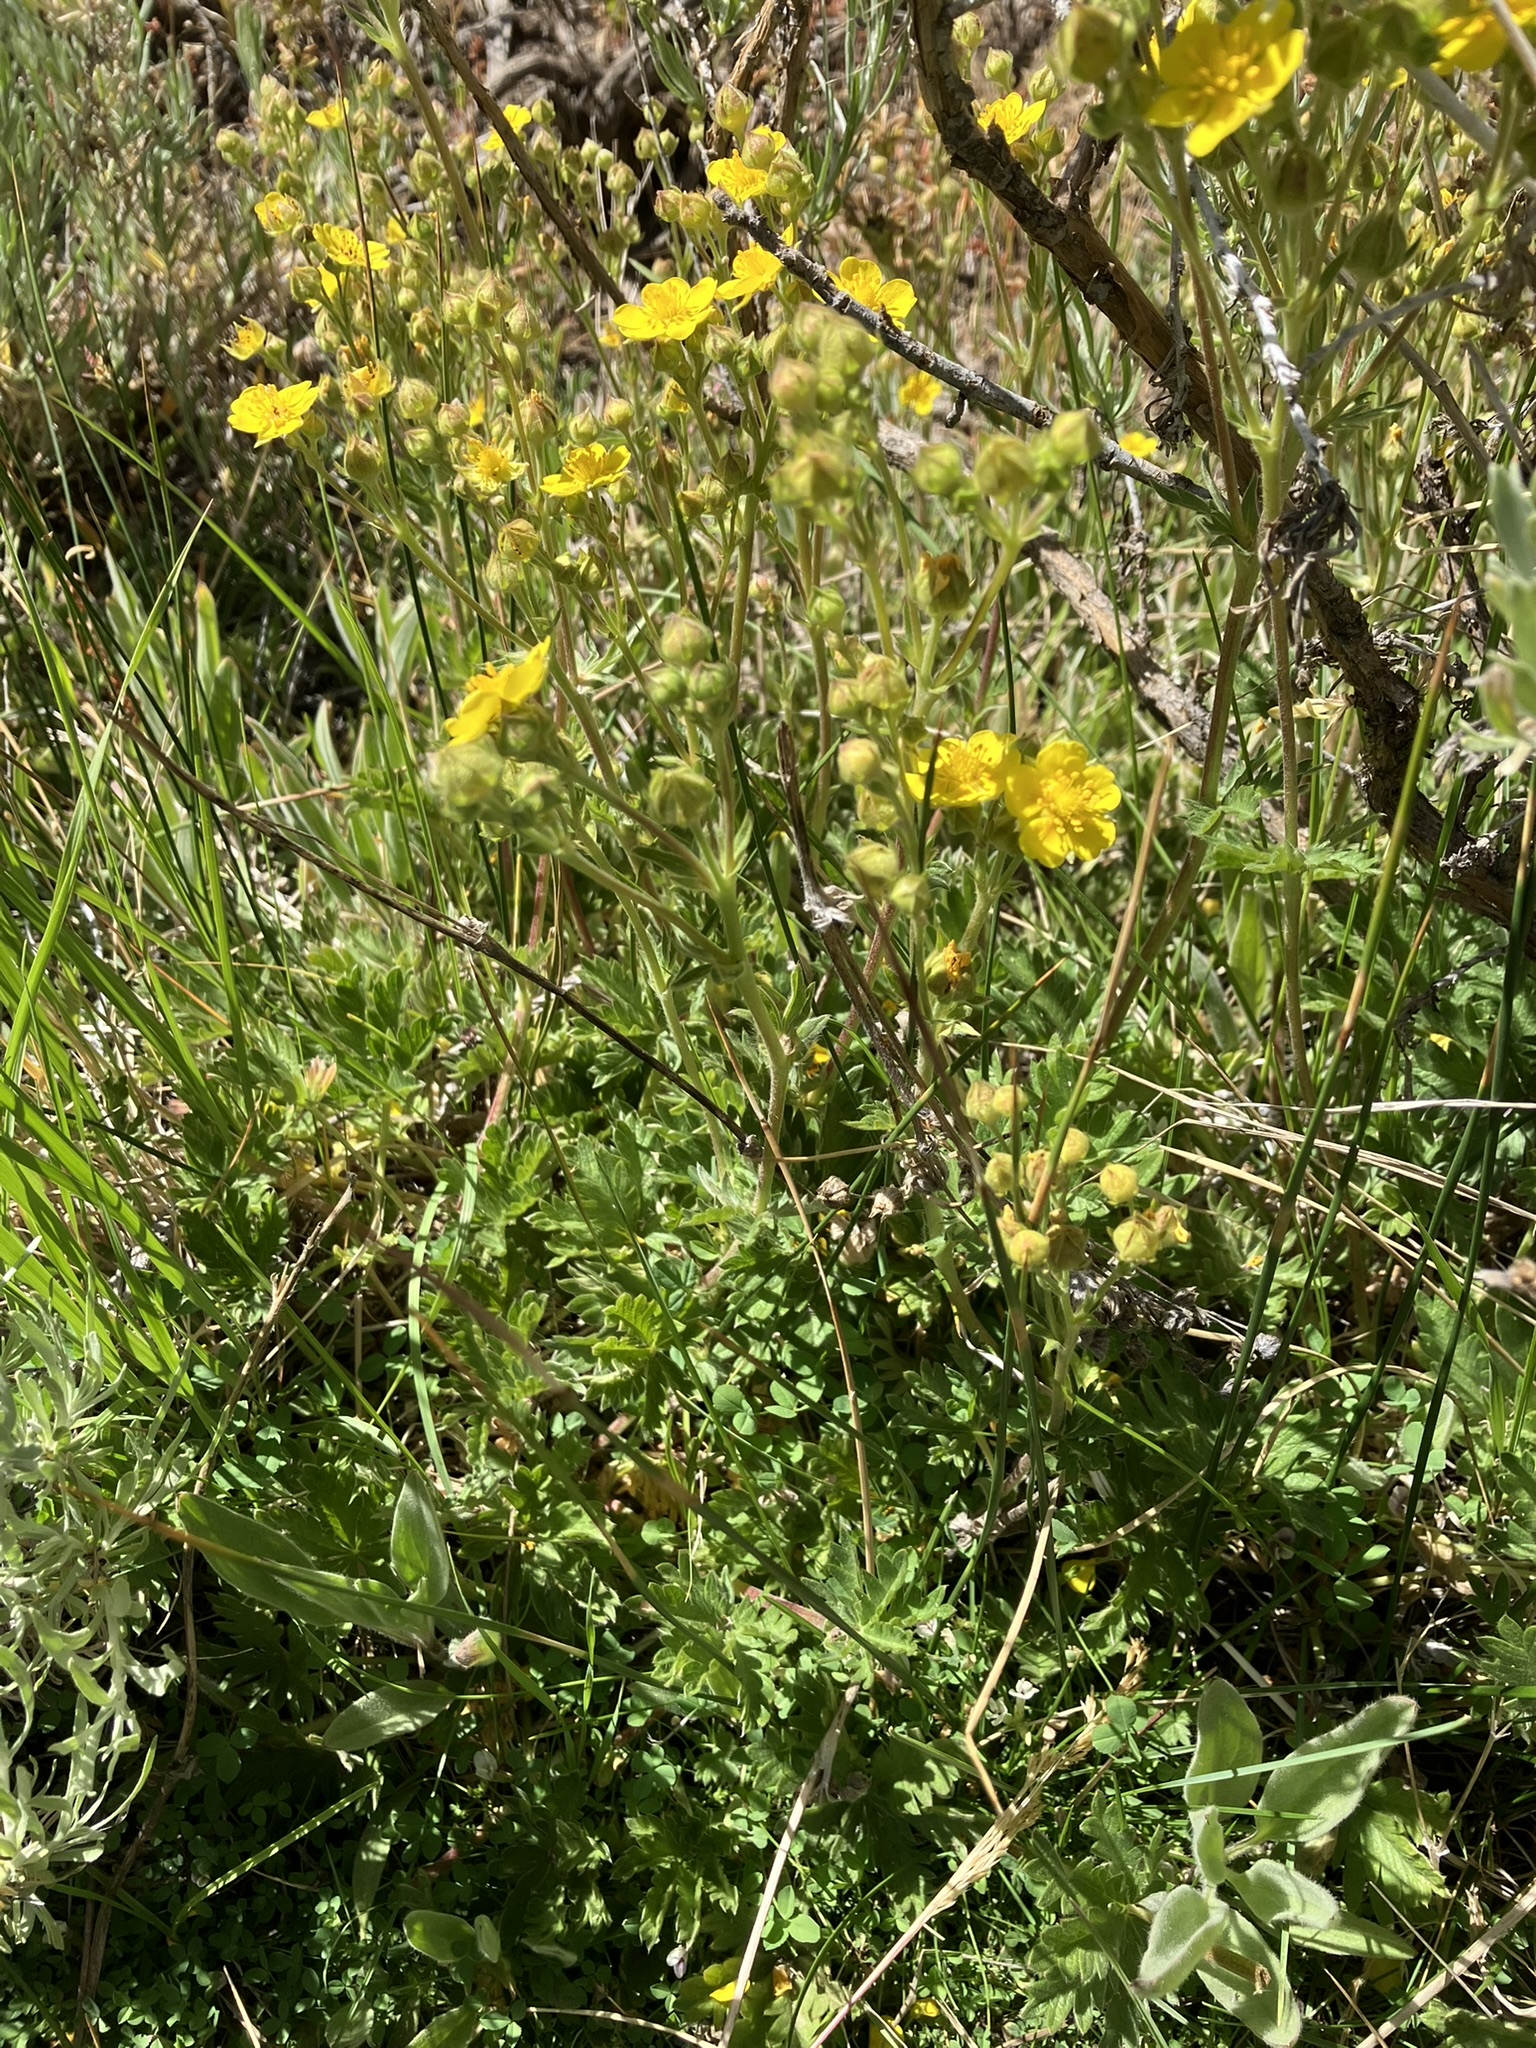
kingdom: Plantae
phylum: Tracheophyta
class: Magnoliopsida
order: Rosales
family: Rosaceae
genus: Potentilla
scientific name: Potentilla gracilis
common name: Graceful cinquefoil
